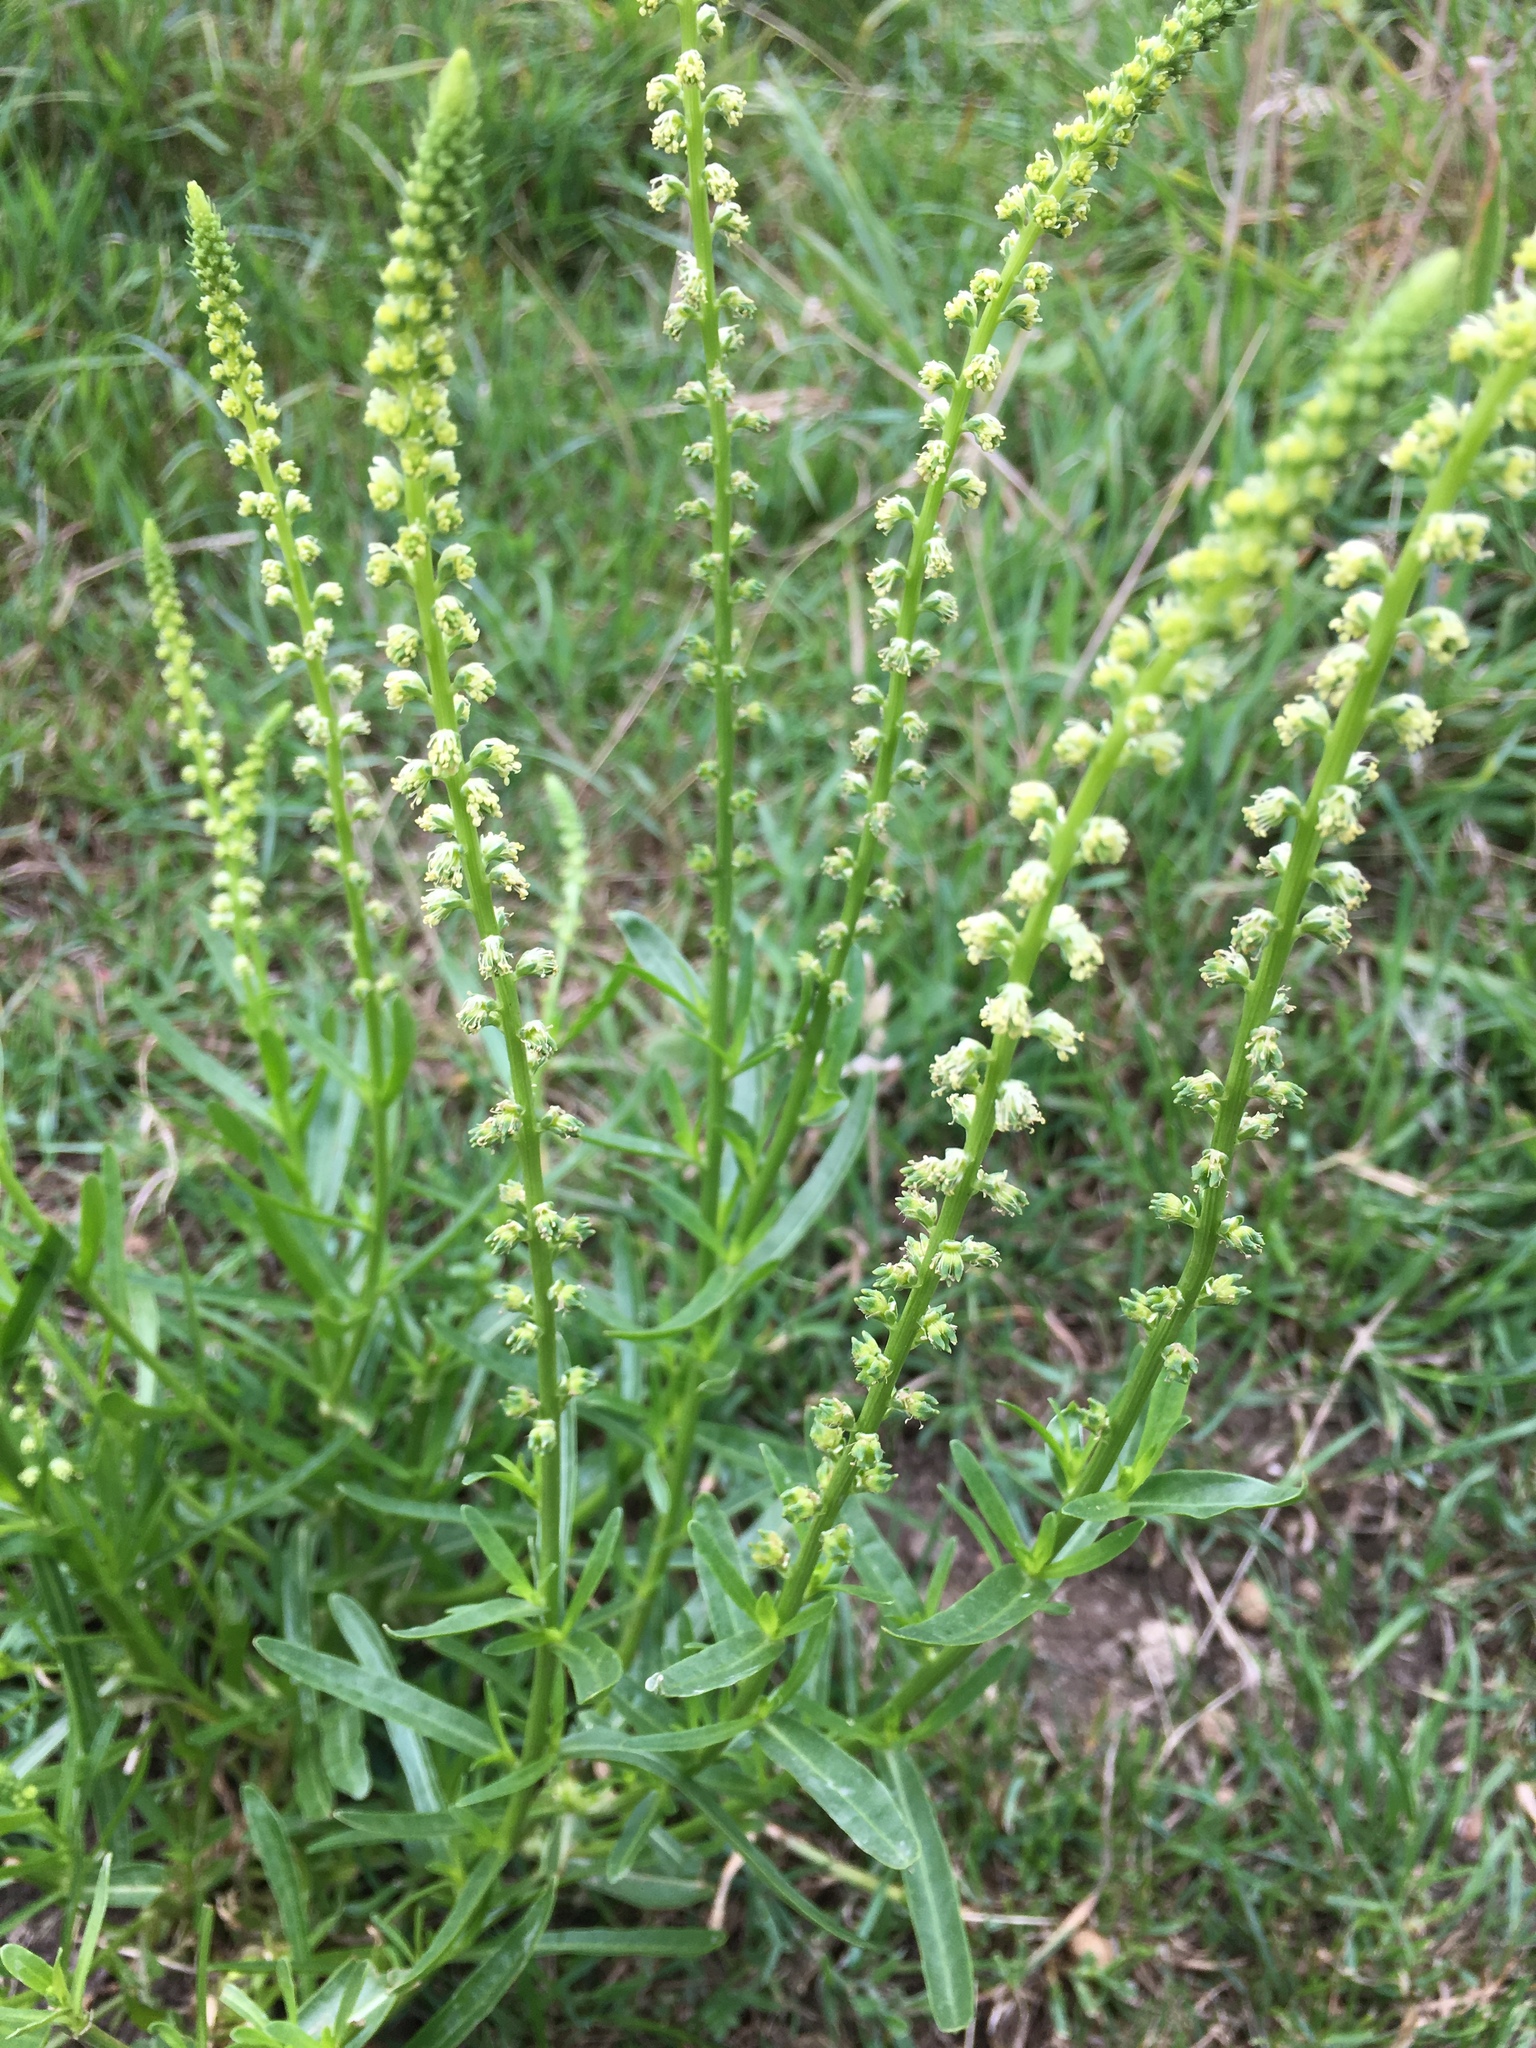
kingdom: Plantae
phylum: Tracheophyta
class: Magnoliopsida
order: Brassicales
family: Resedaceae
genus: Reseda
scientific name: Reseda luteola
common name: Weld
